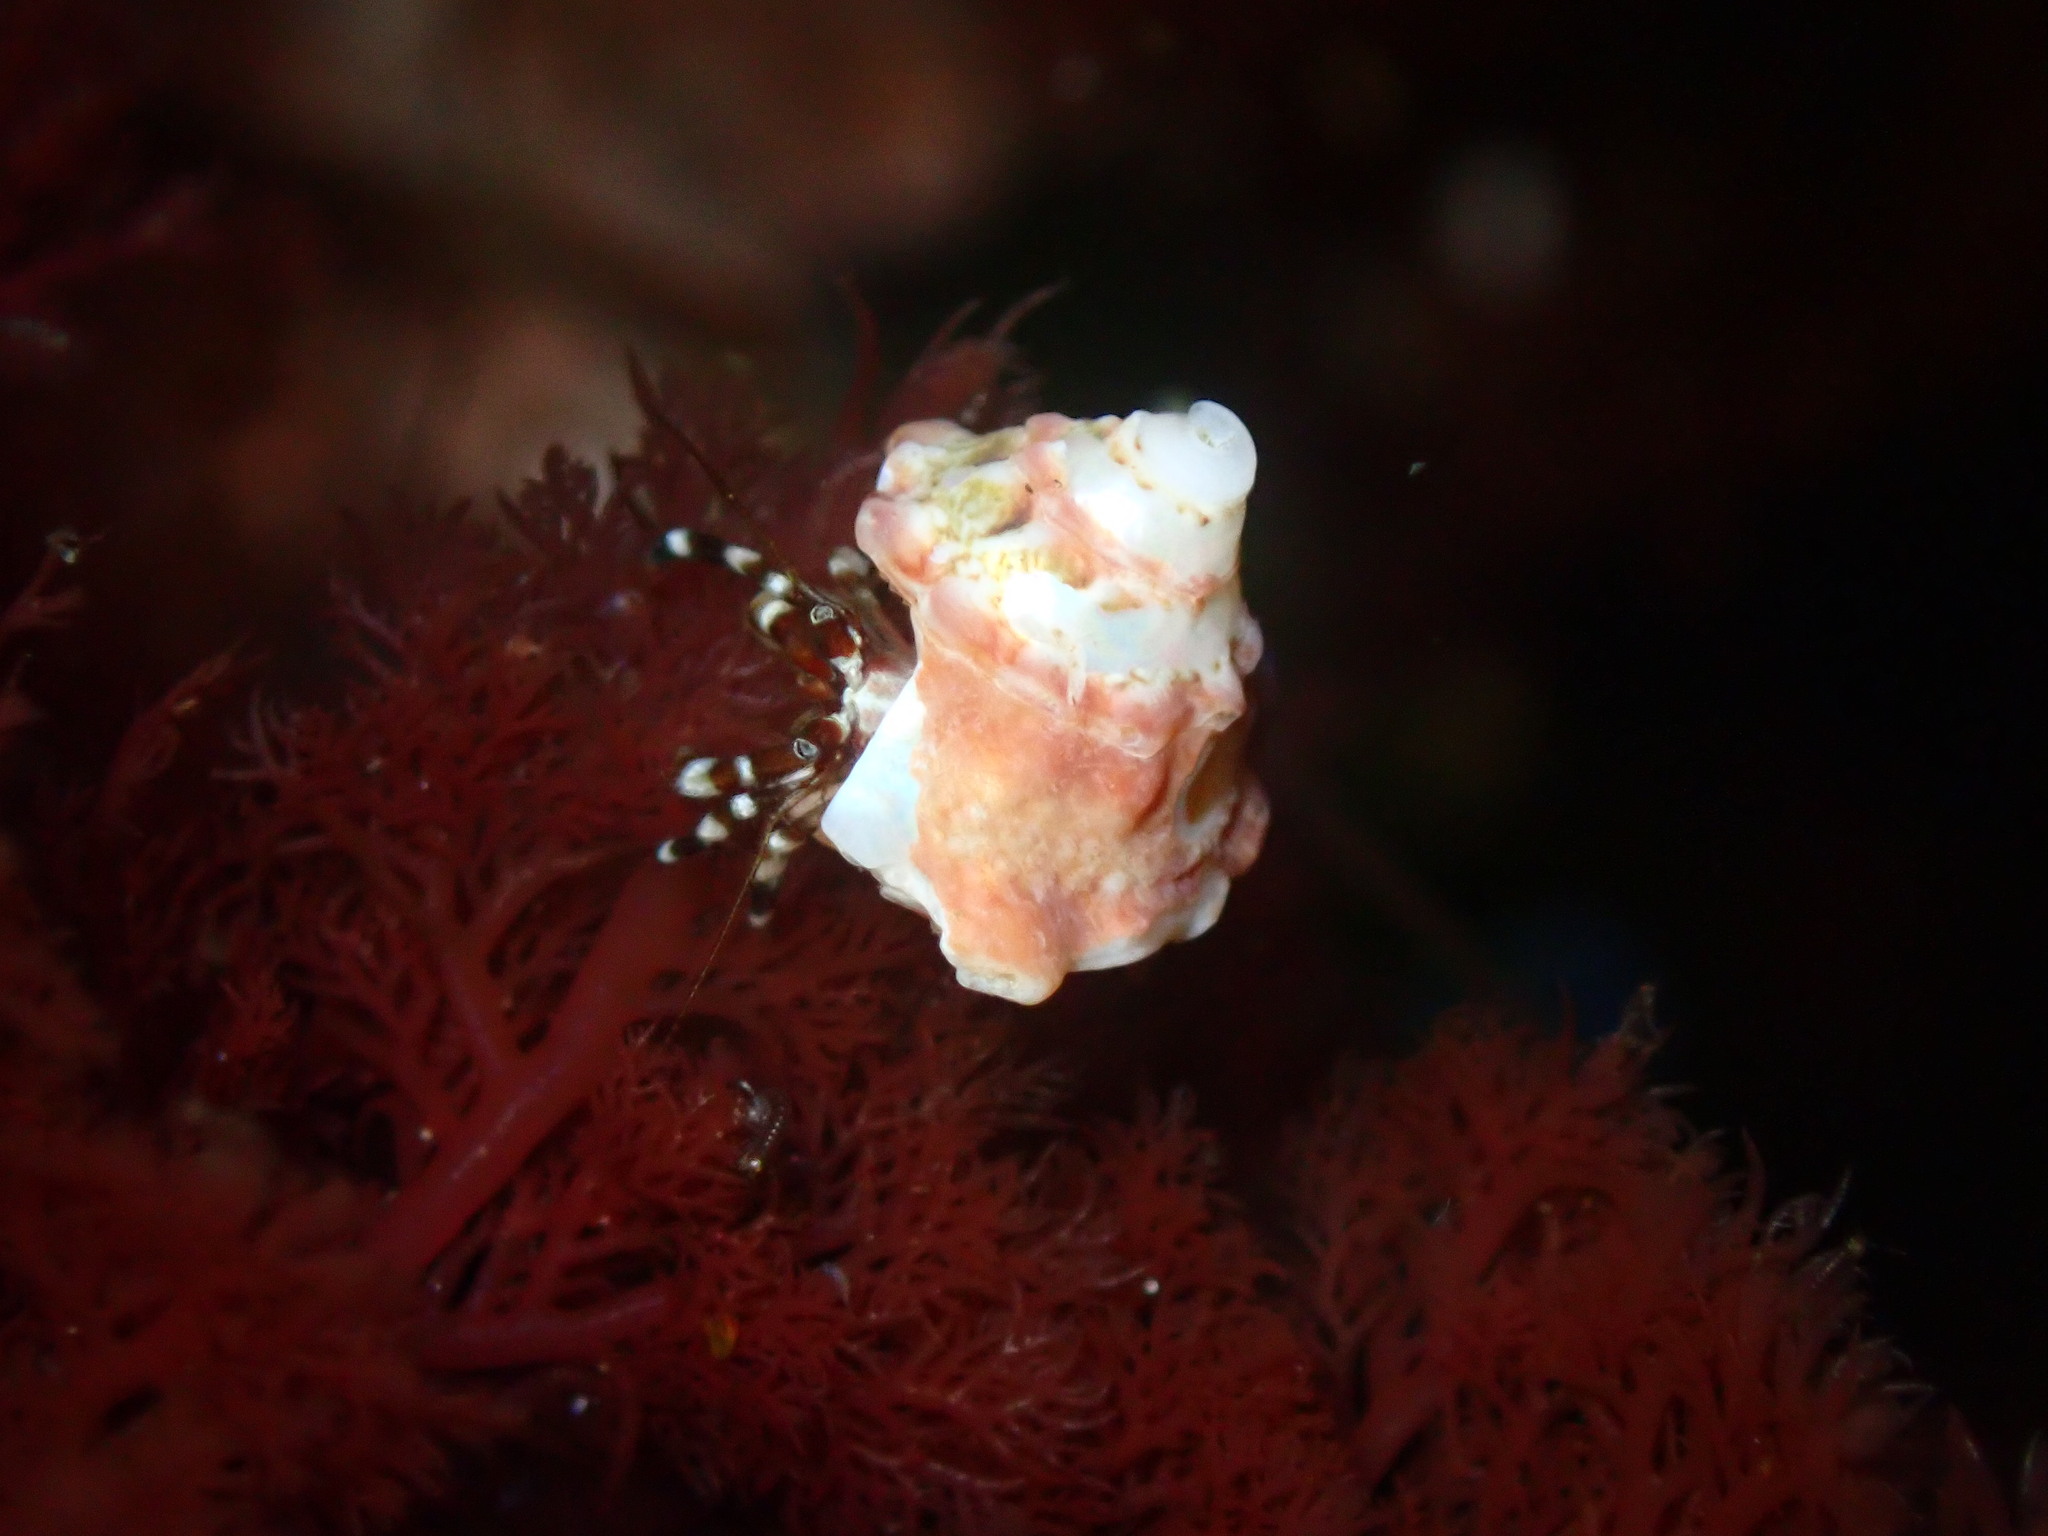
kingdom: Animalia
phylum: Arthropoda
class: Malacostraca
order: Decapoda
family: Paguridae
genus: Pagurus
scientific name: Pagurus samuelis
